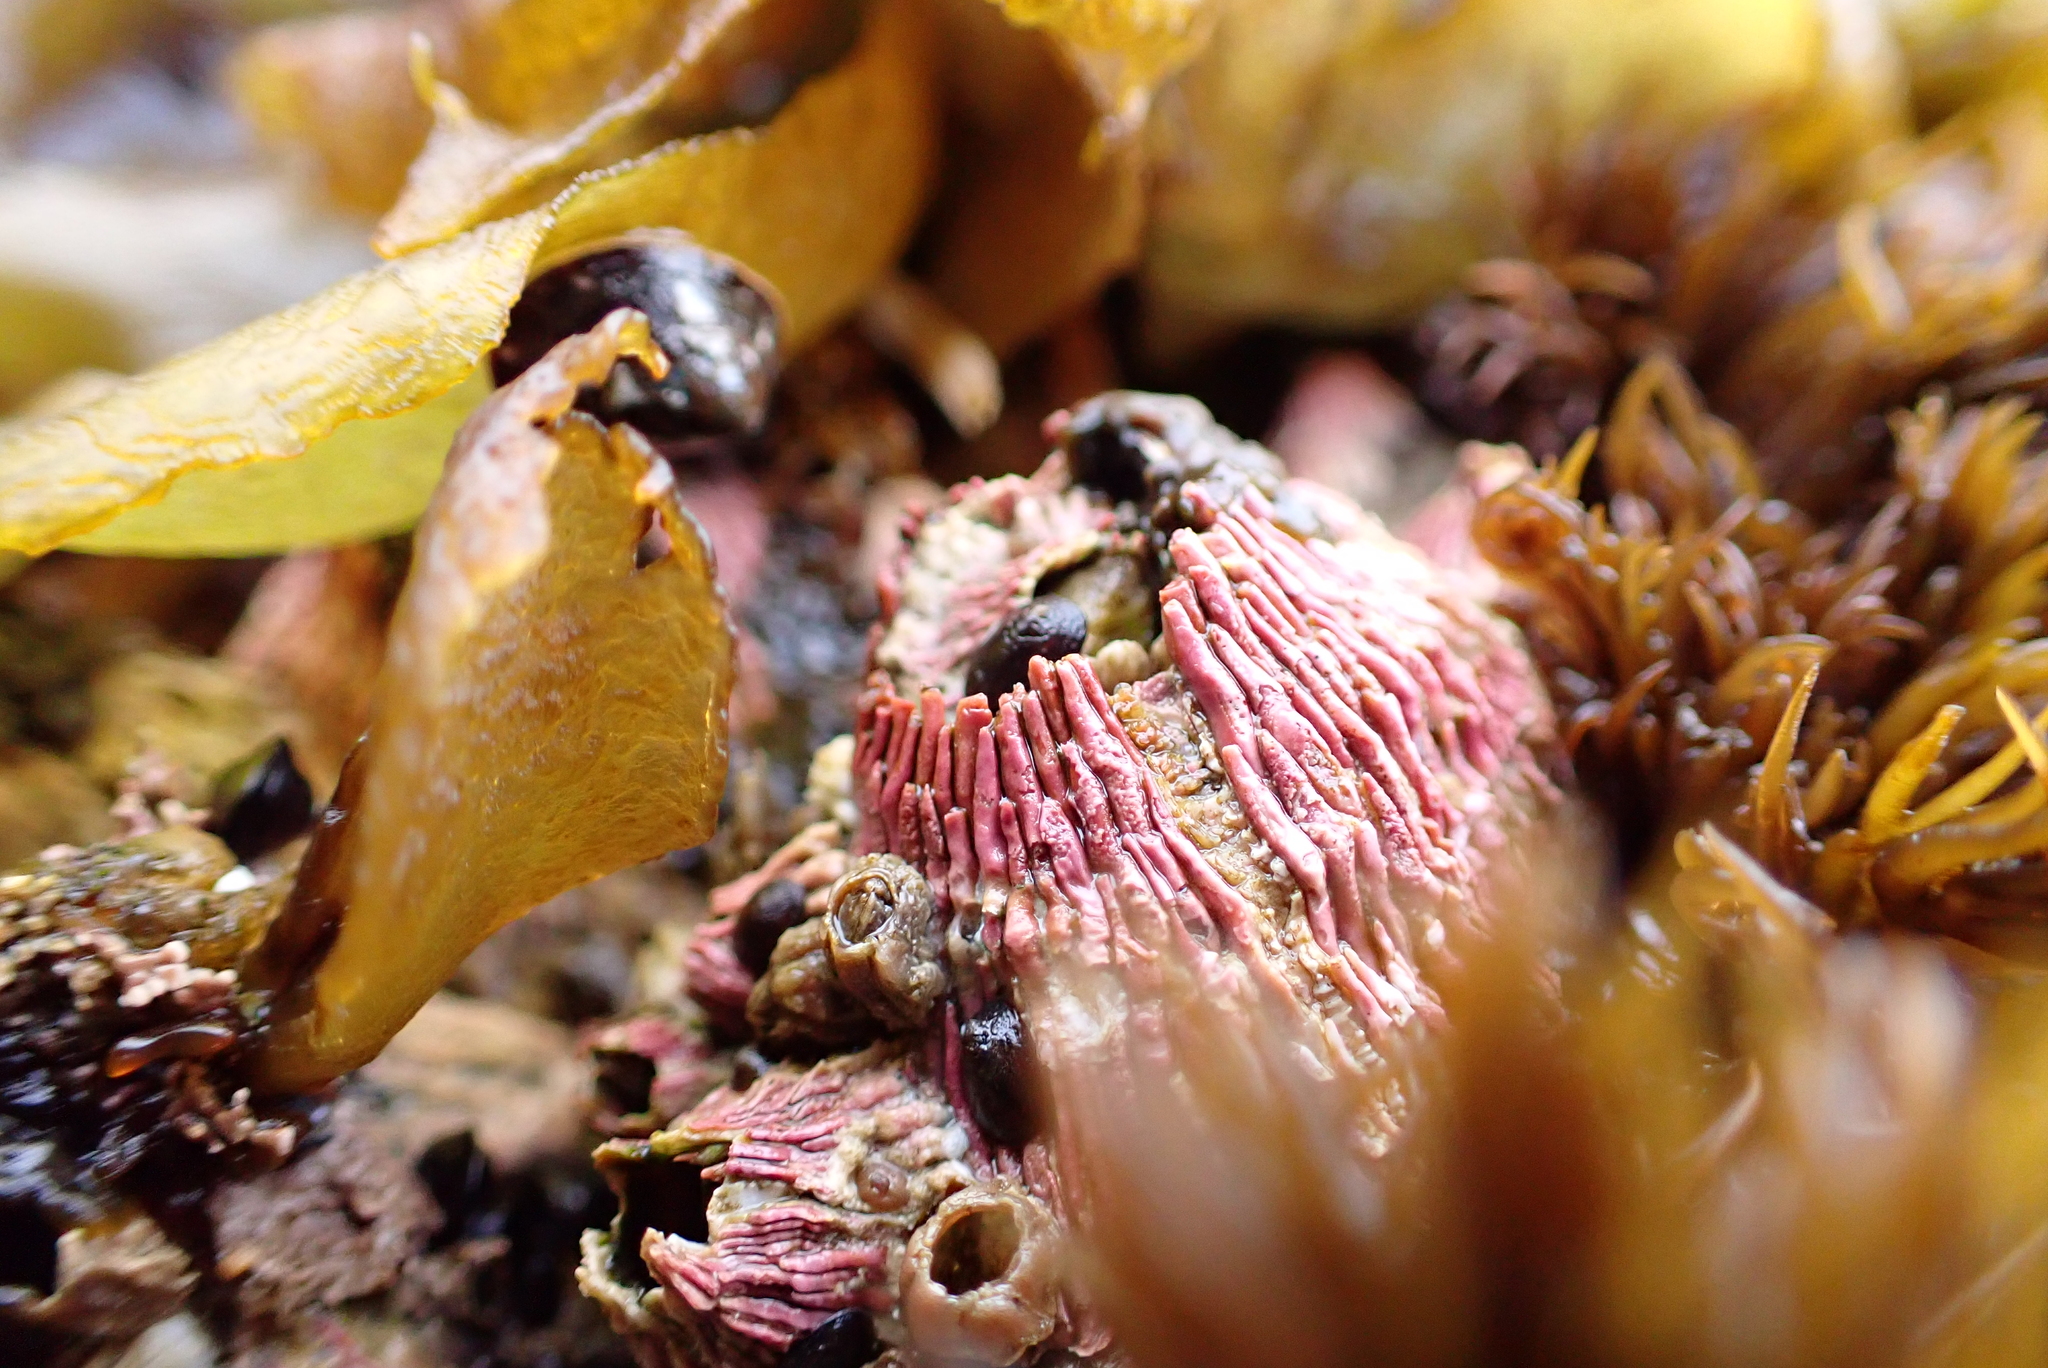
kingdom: Animalia
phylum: Arthropoda
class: Maxillopoda
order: Sessilia
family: Tetraclitidae
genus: Tetraclita
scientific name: Tetraclita rubescens
